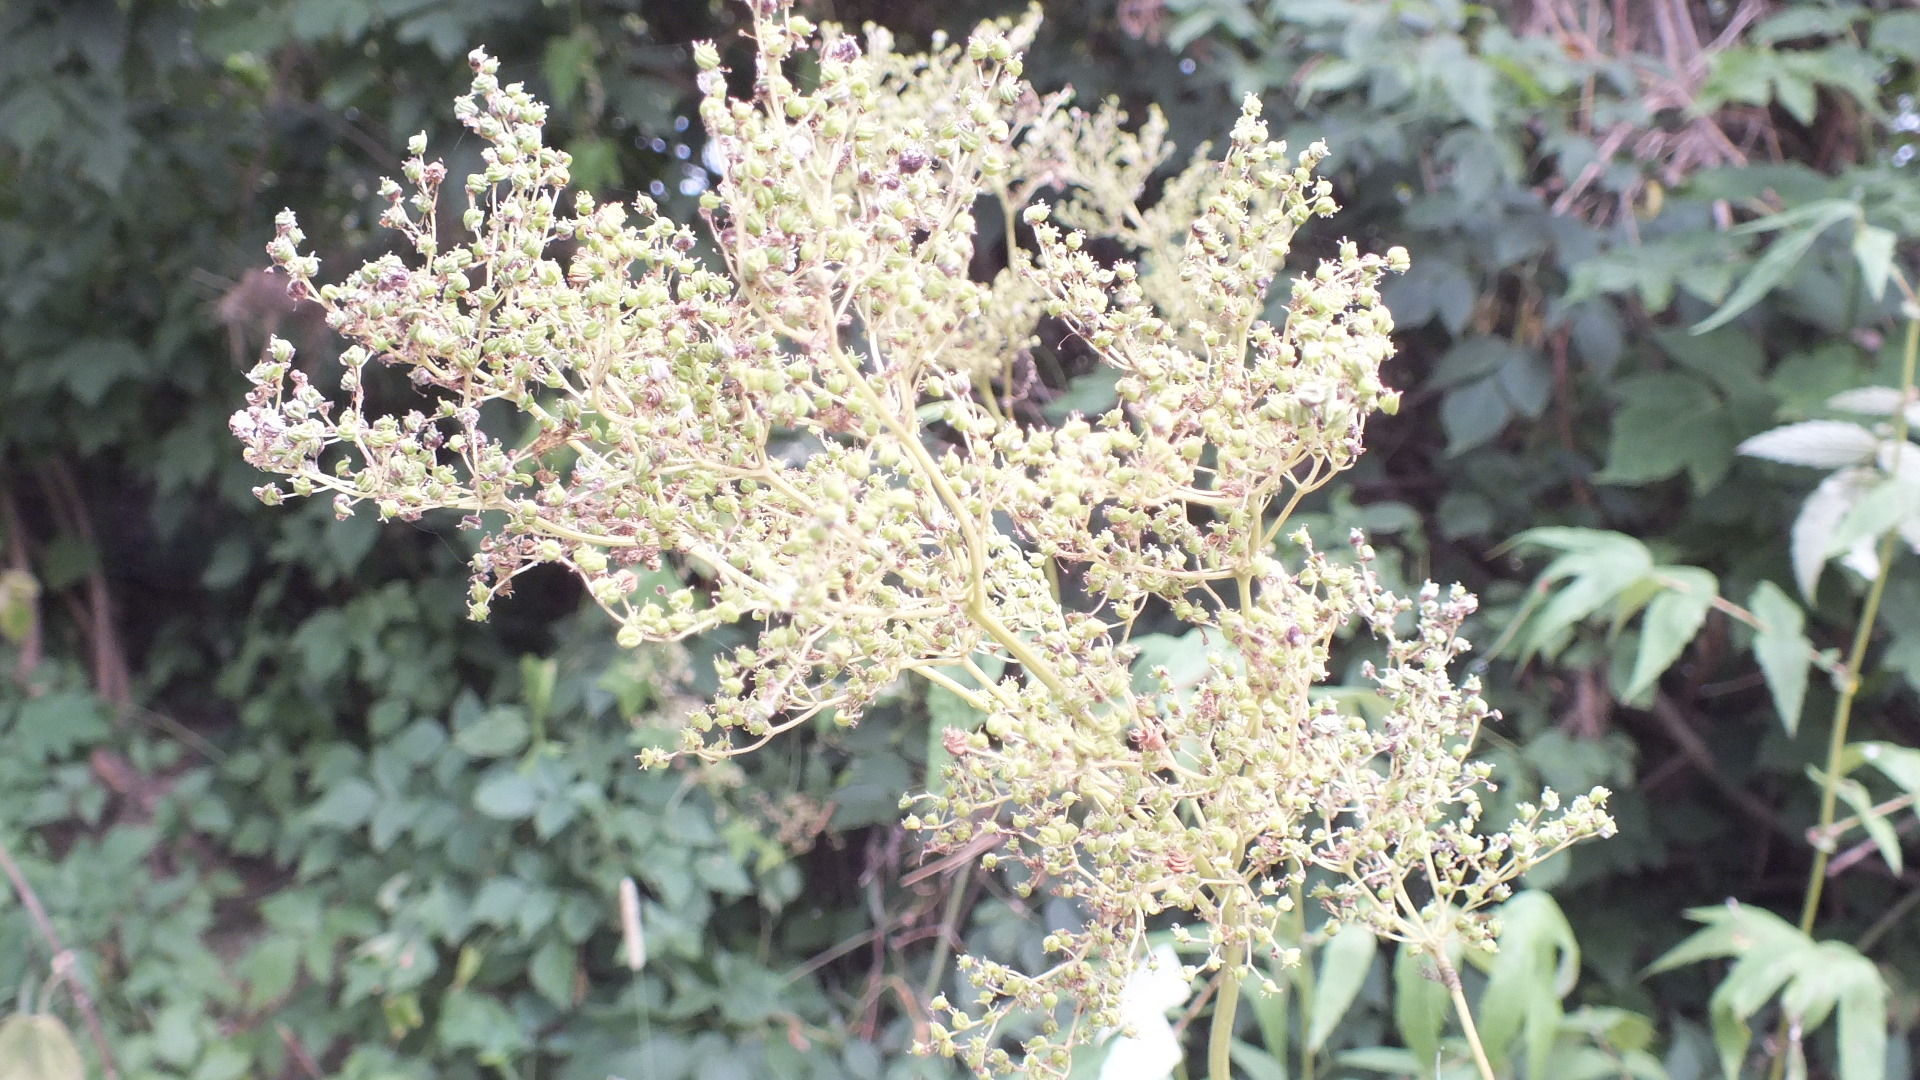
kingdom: Plantae
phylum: Tracheophyta
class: Magnoliopsida
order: Rosales
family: Rosaceae
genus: Filipendula
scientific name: Filipendula ulmaria
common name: Meadowsweet
